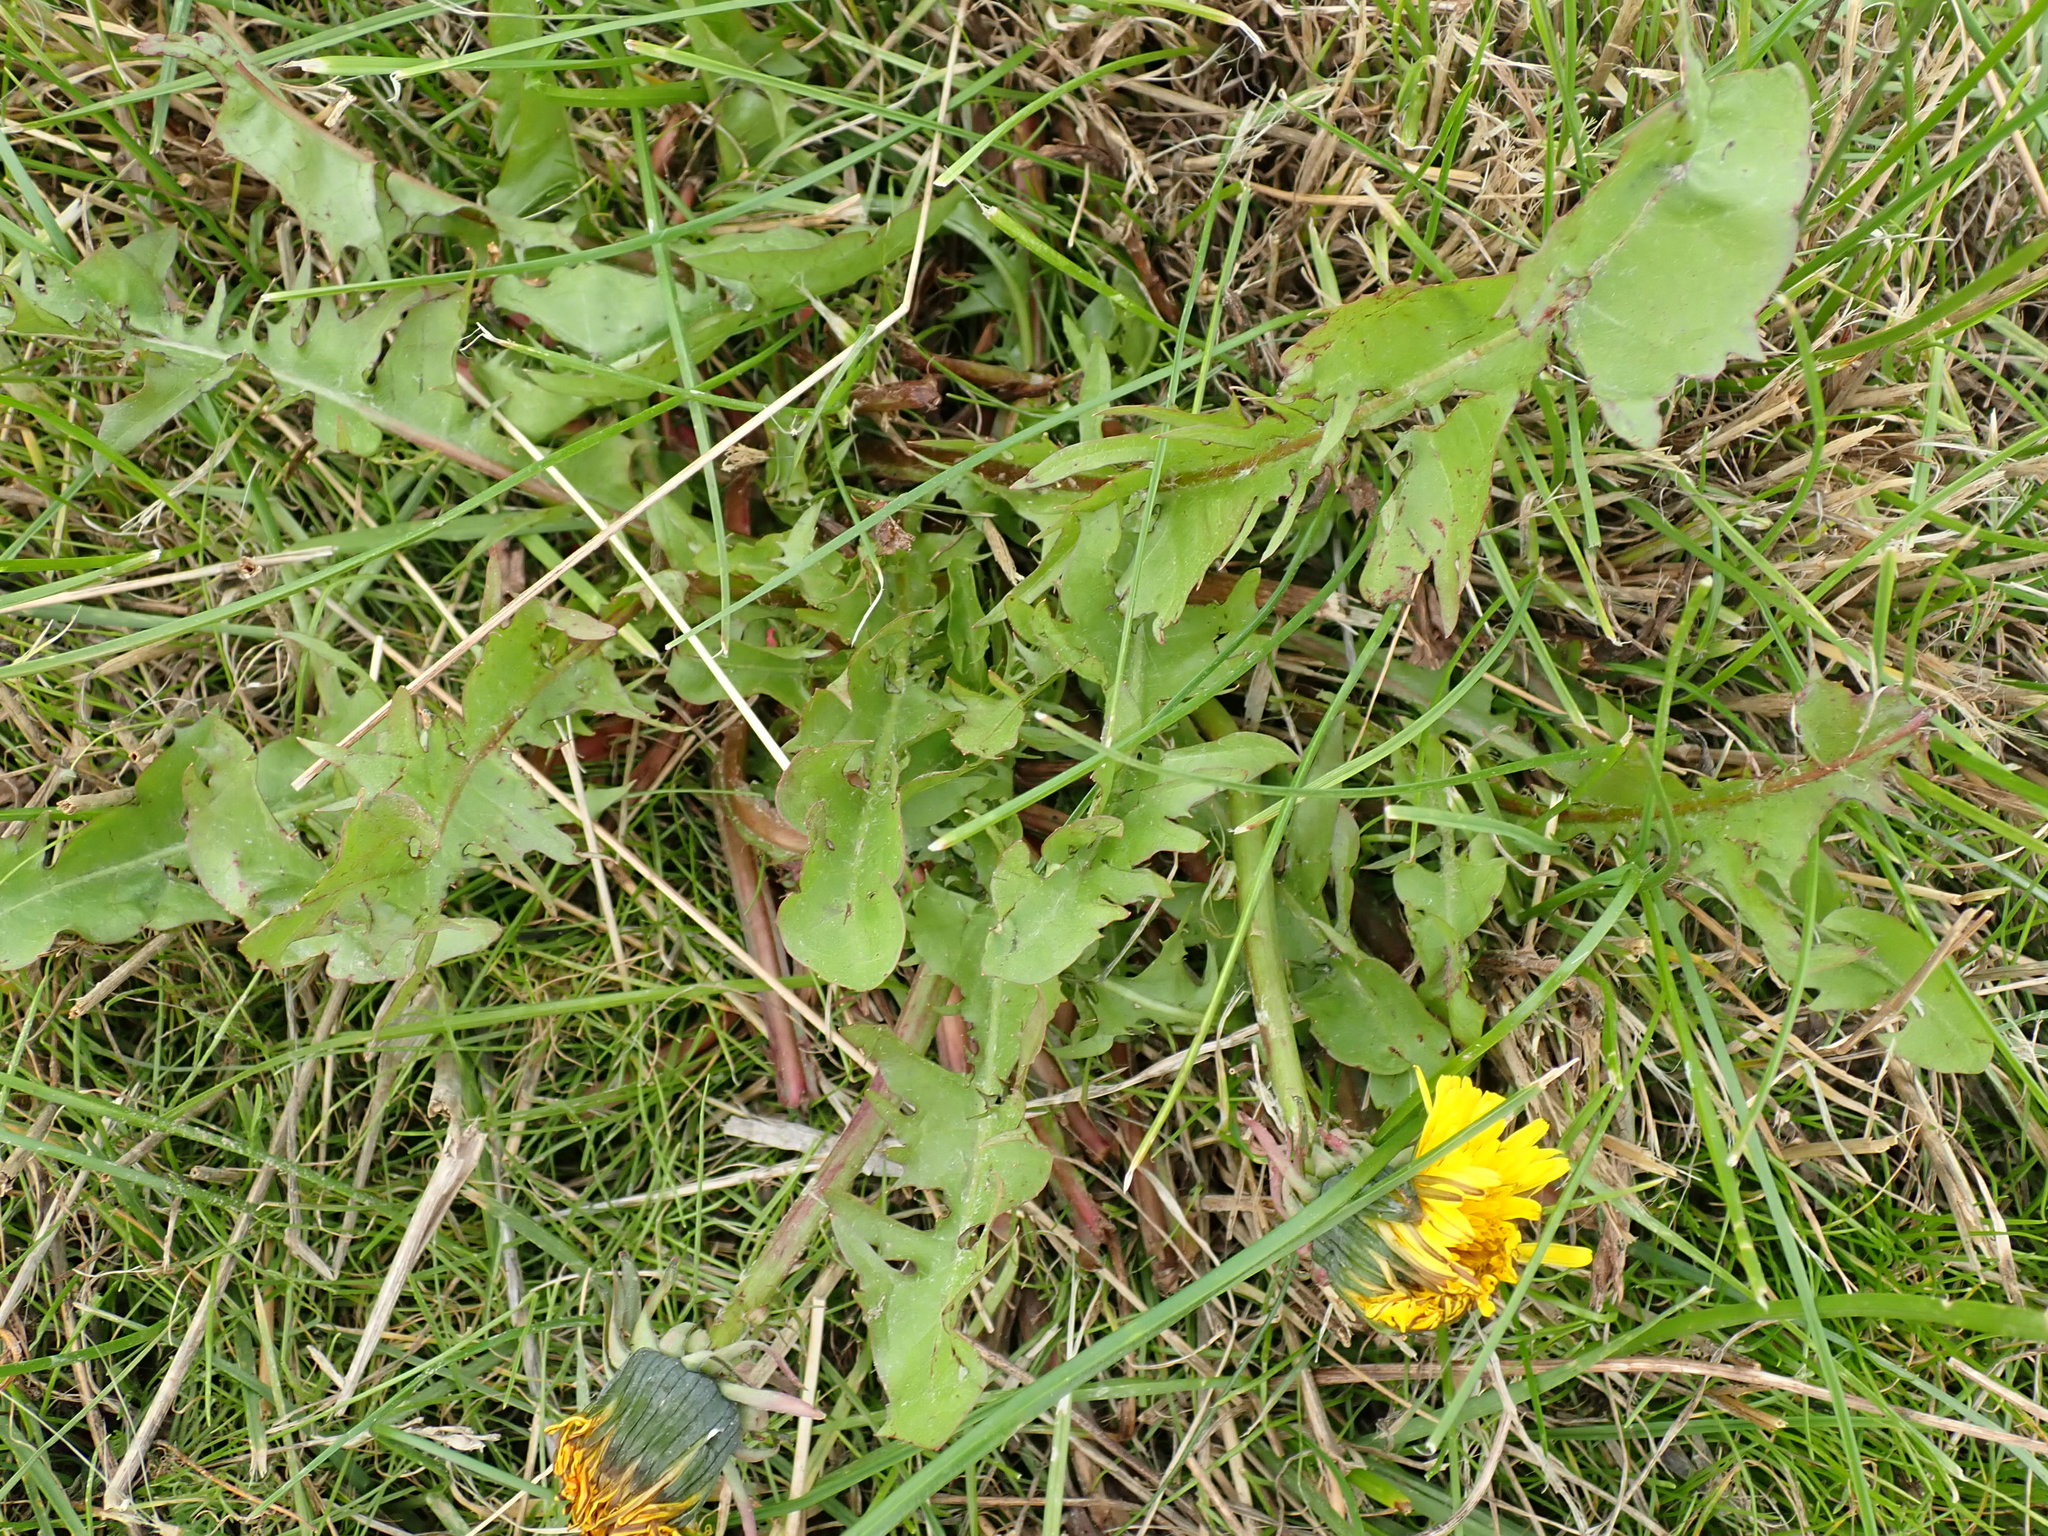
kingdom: Plantae
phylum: Tracheophyta
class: Magnoliopsida
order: Asterales
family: Asteraceae
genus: Taraxacum
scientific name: Taraxacum officinale
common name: Common dandelion
